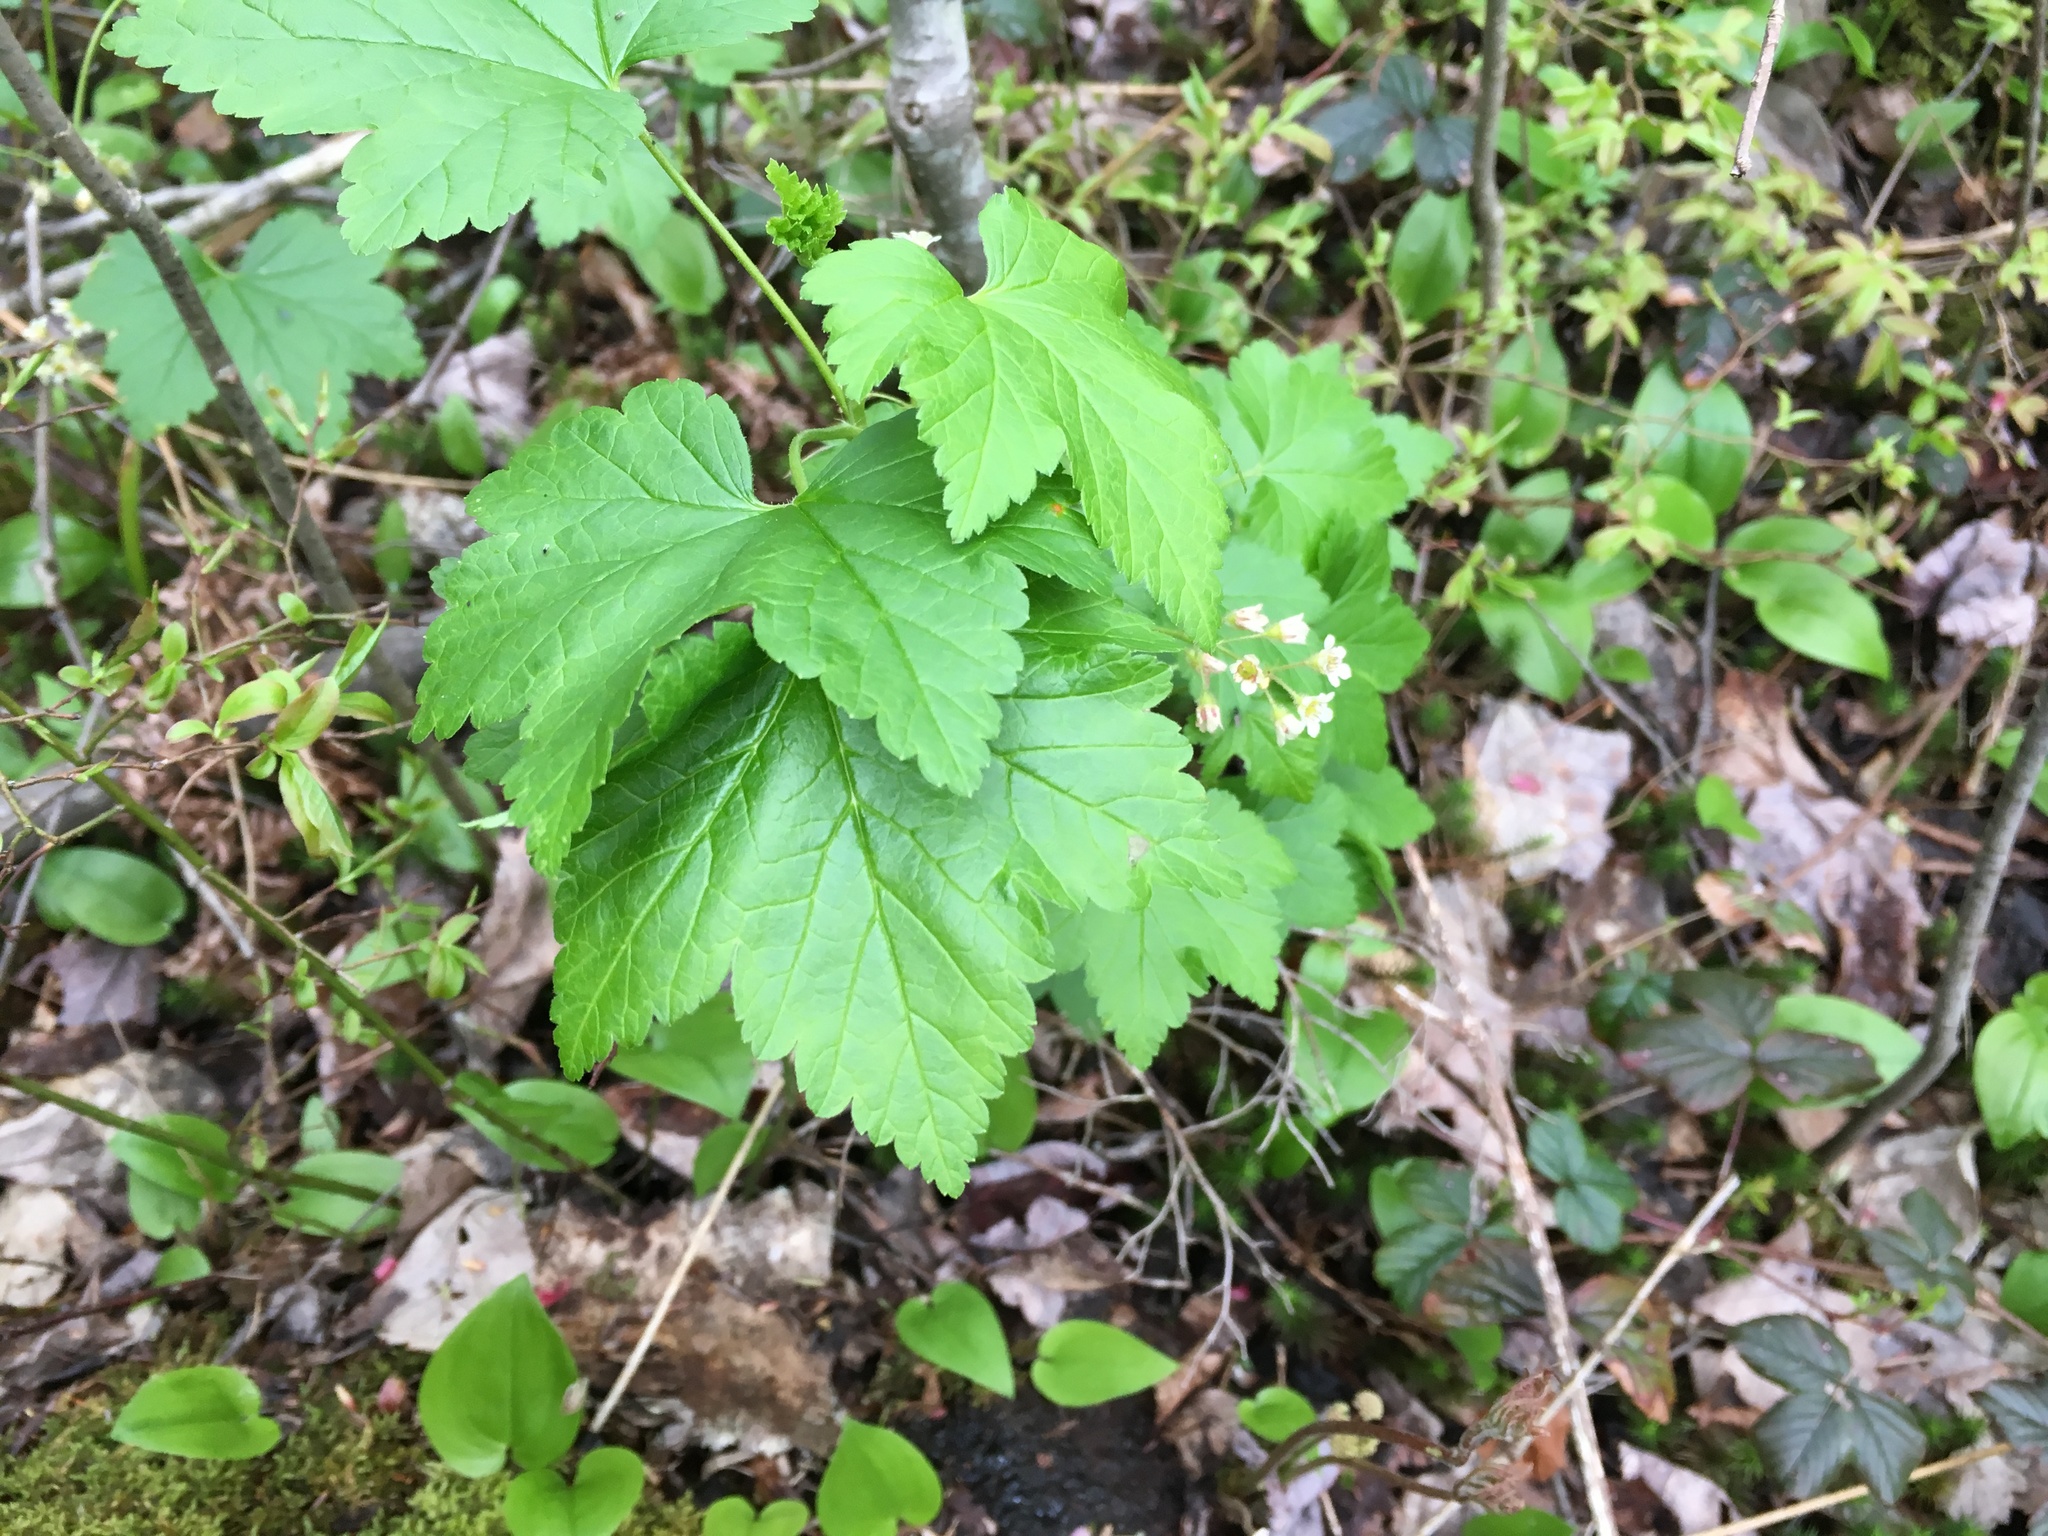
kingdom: Plantae
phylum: Tracheophyta
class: Magnoliopsida
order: Saxifragales
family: Grossulariaceae
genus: Ribes
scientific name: Ribes glandulosum
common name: Skunk currant
